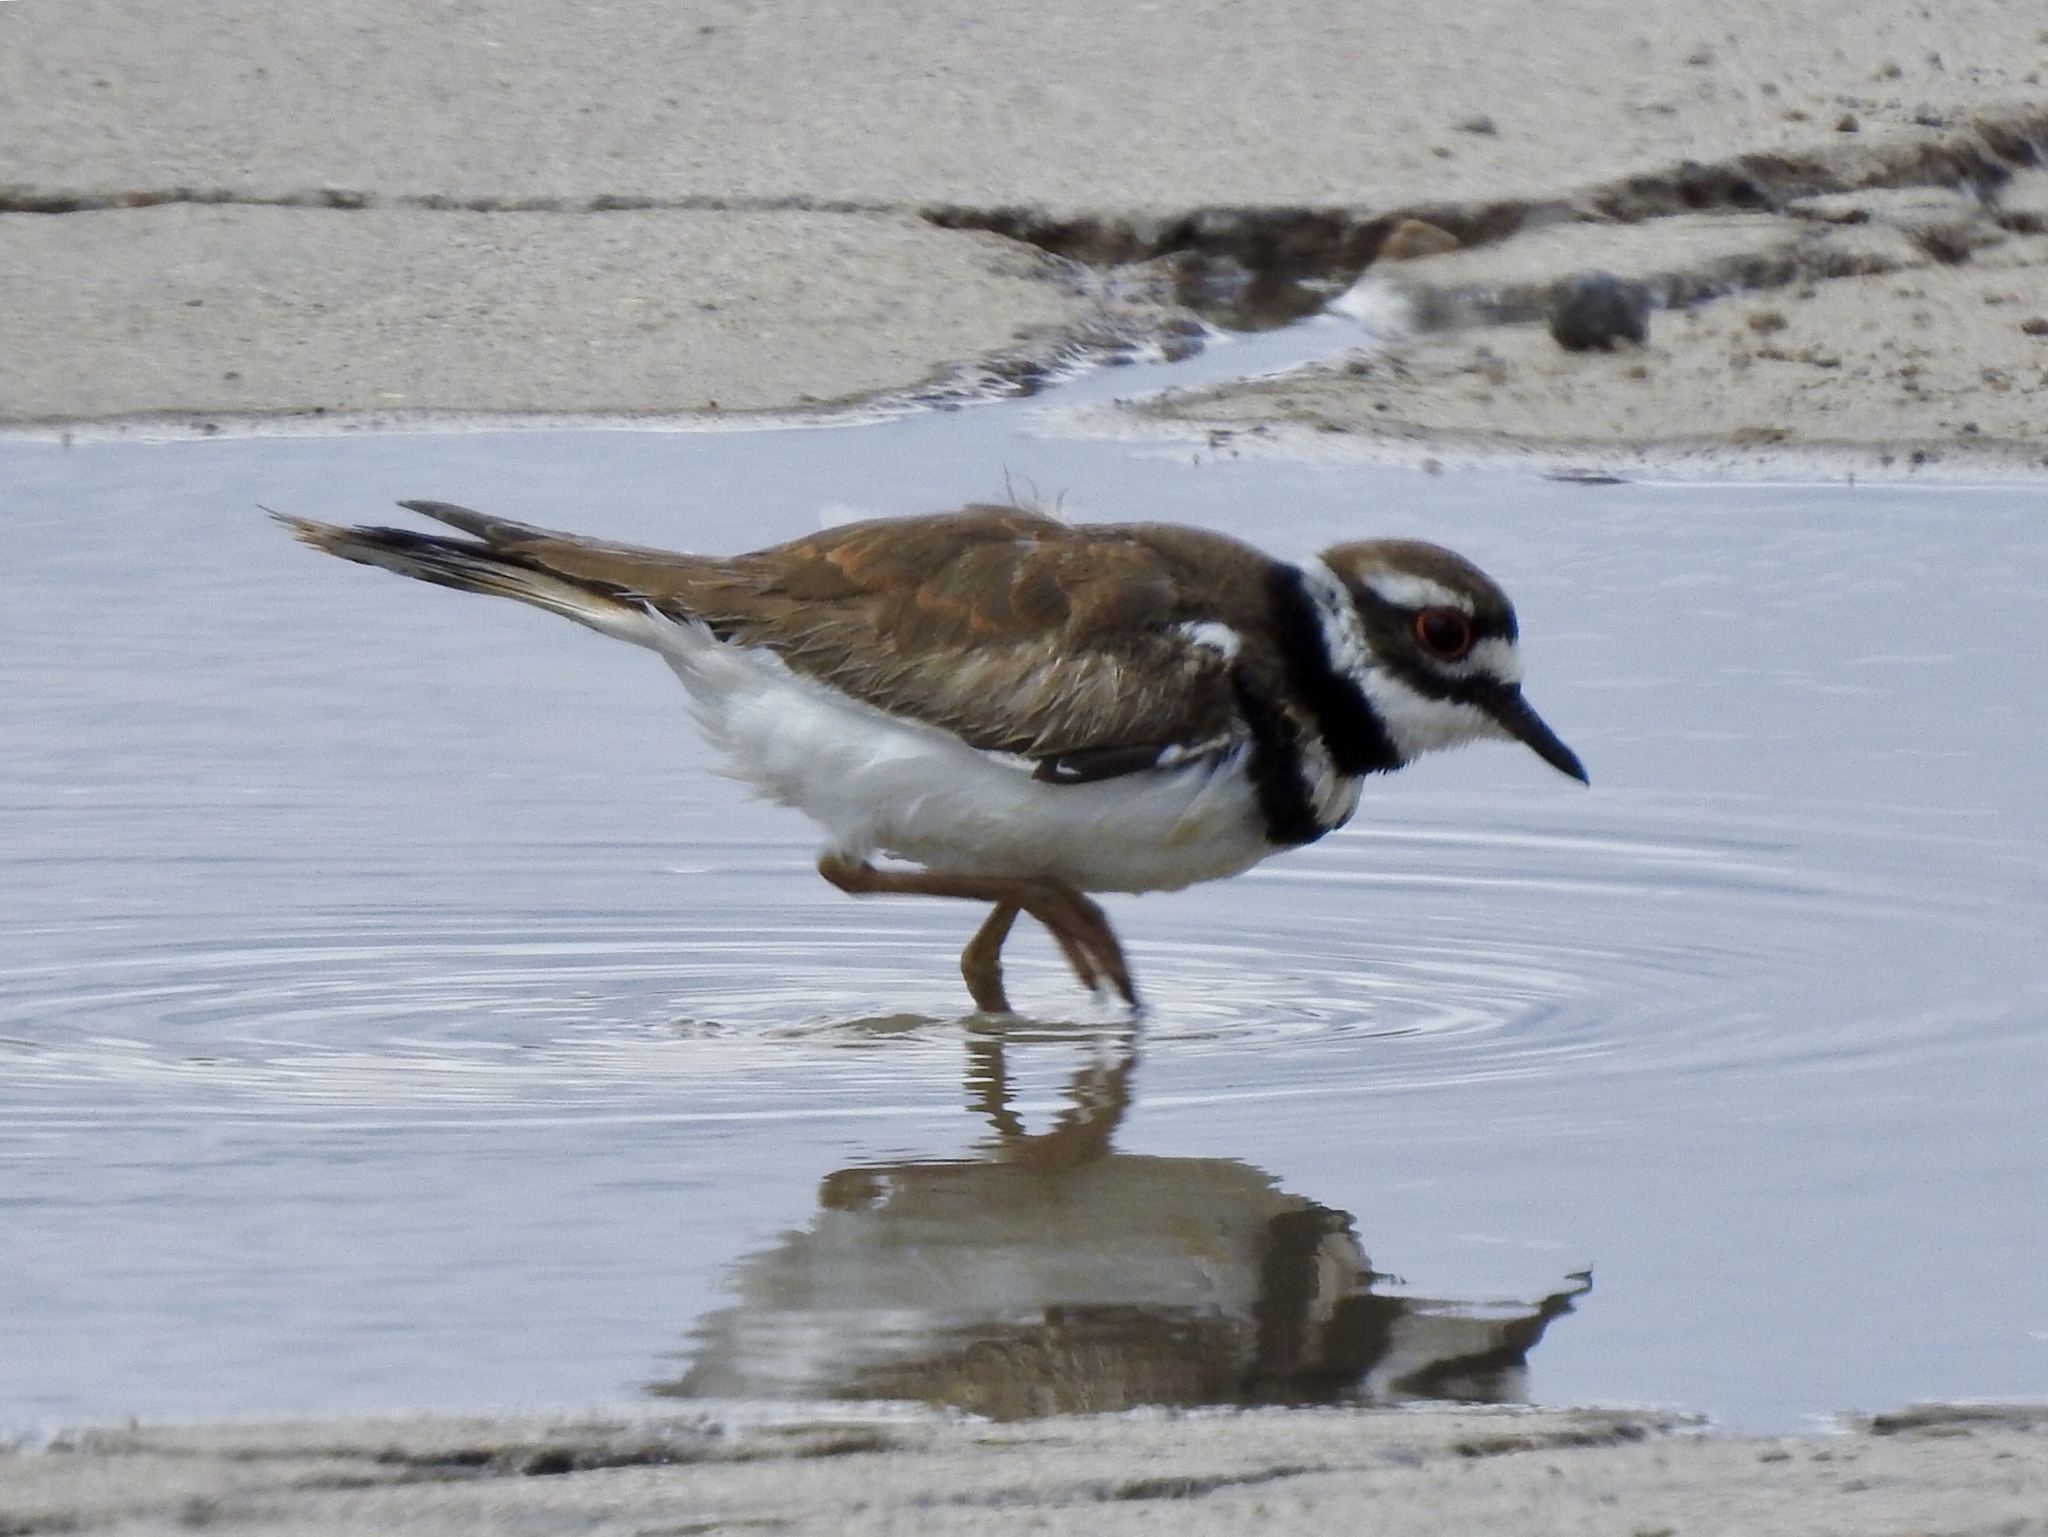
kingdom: Animalia
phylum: Chordata
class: Aves
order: Charadriiformes
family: Charadriidae
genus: Charadrius
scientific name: Charadrius vociferus
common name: Killdeer
